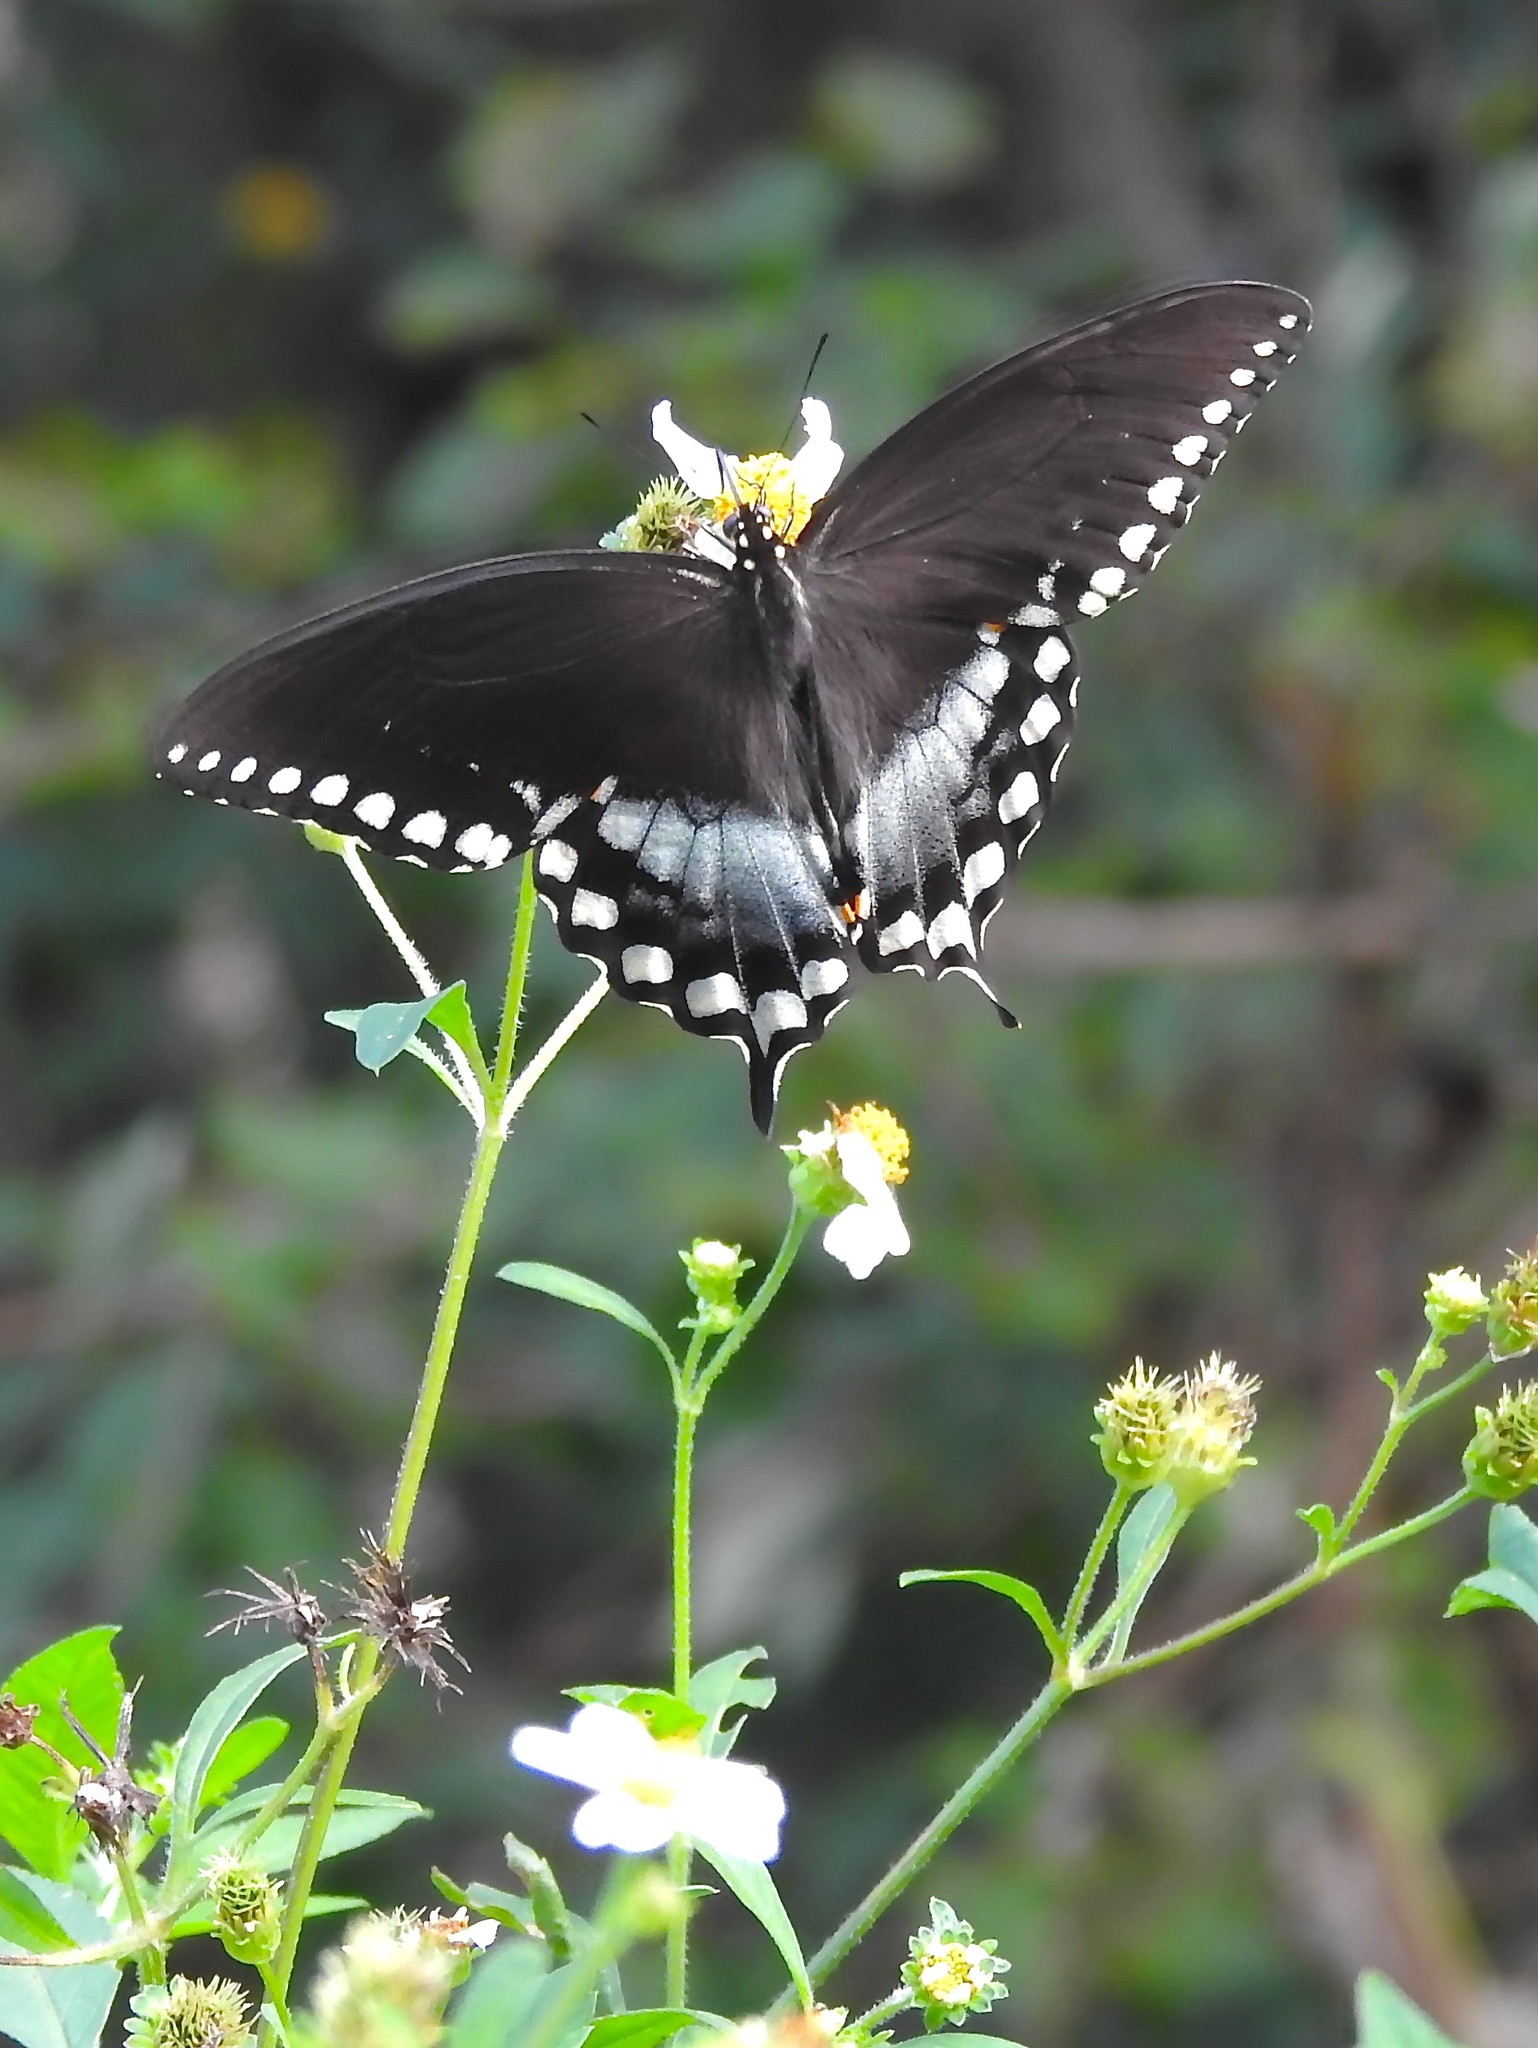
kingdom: Animalia
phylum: Arthropoda
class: Insecta
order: Lepidoptera
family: Papilionidae
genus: Papilio
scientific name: Papilio troilus
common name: Spicebush swallowtail
